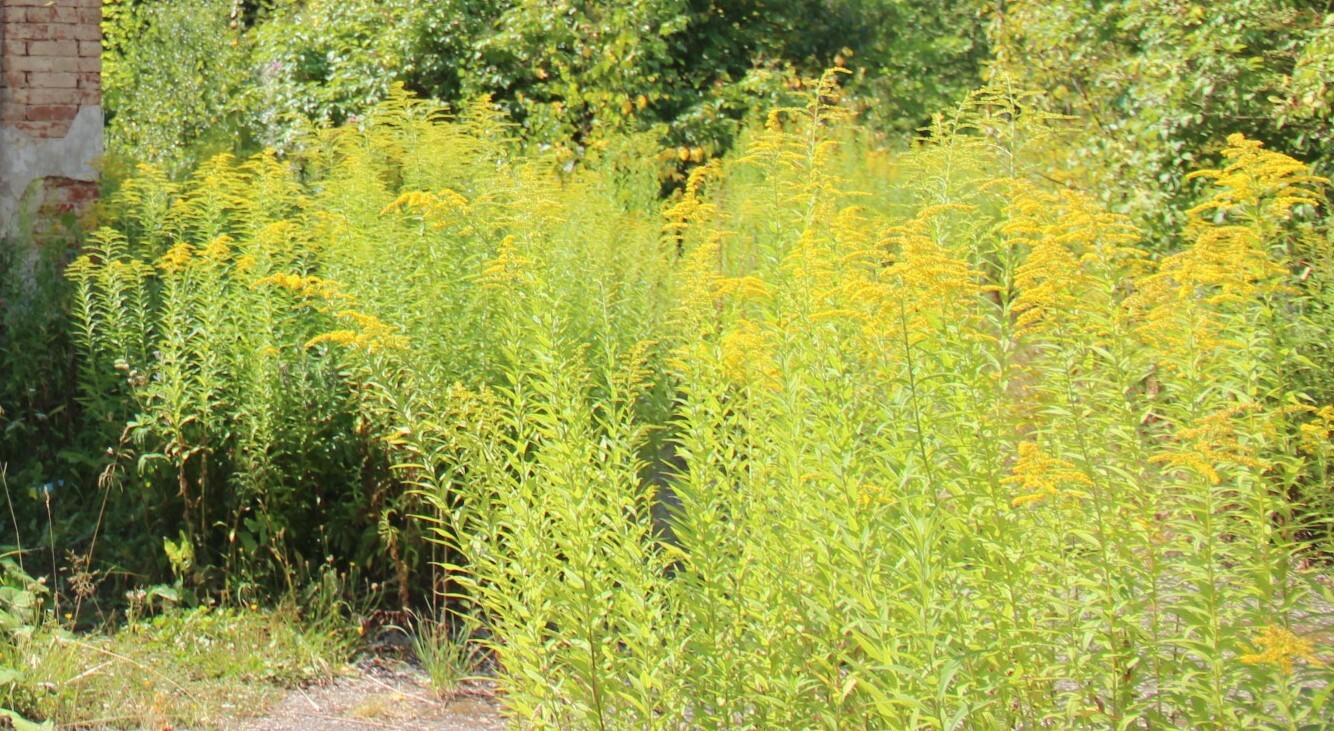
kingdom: Plantae
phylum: Tracheophyta
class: Magnoliopsida
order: Asterales
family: Asteraceae
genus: Solidago
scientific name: Solidago gigantea
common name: Giant goldenrod
